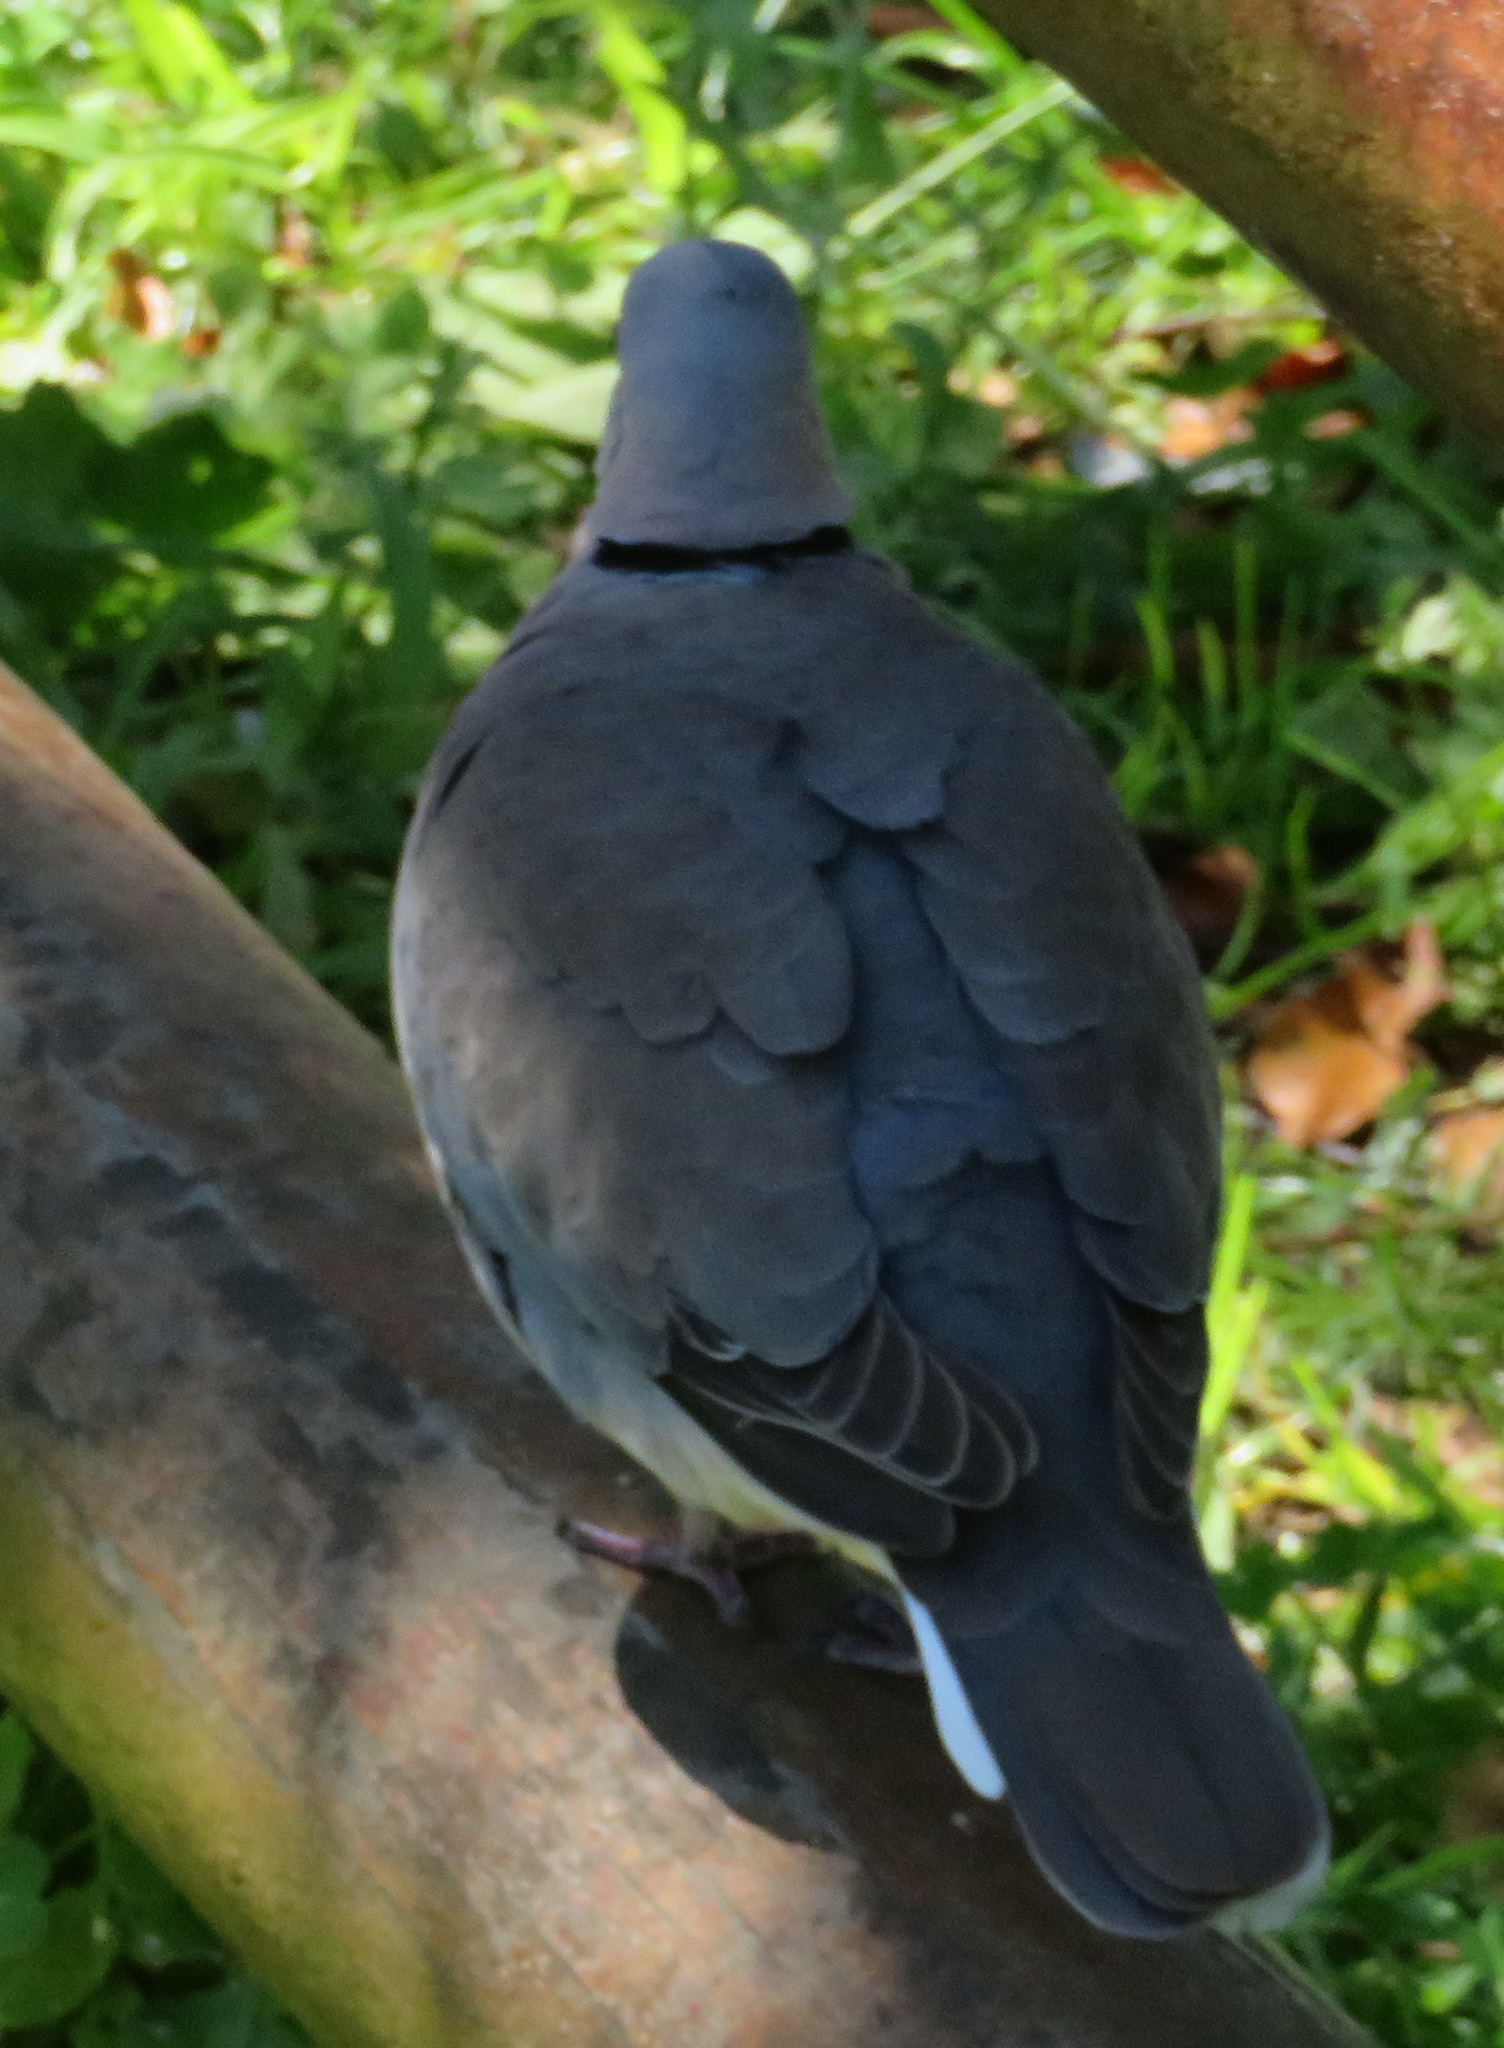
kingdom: Animalia
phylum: Chordata
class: Aves
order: Columbiformes
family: Columbidae
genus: Streptopelia
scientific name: Streptopelia capicola
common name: Ring-necked dove
